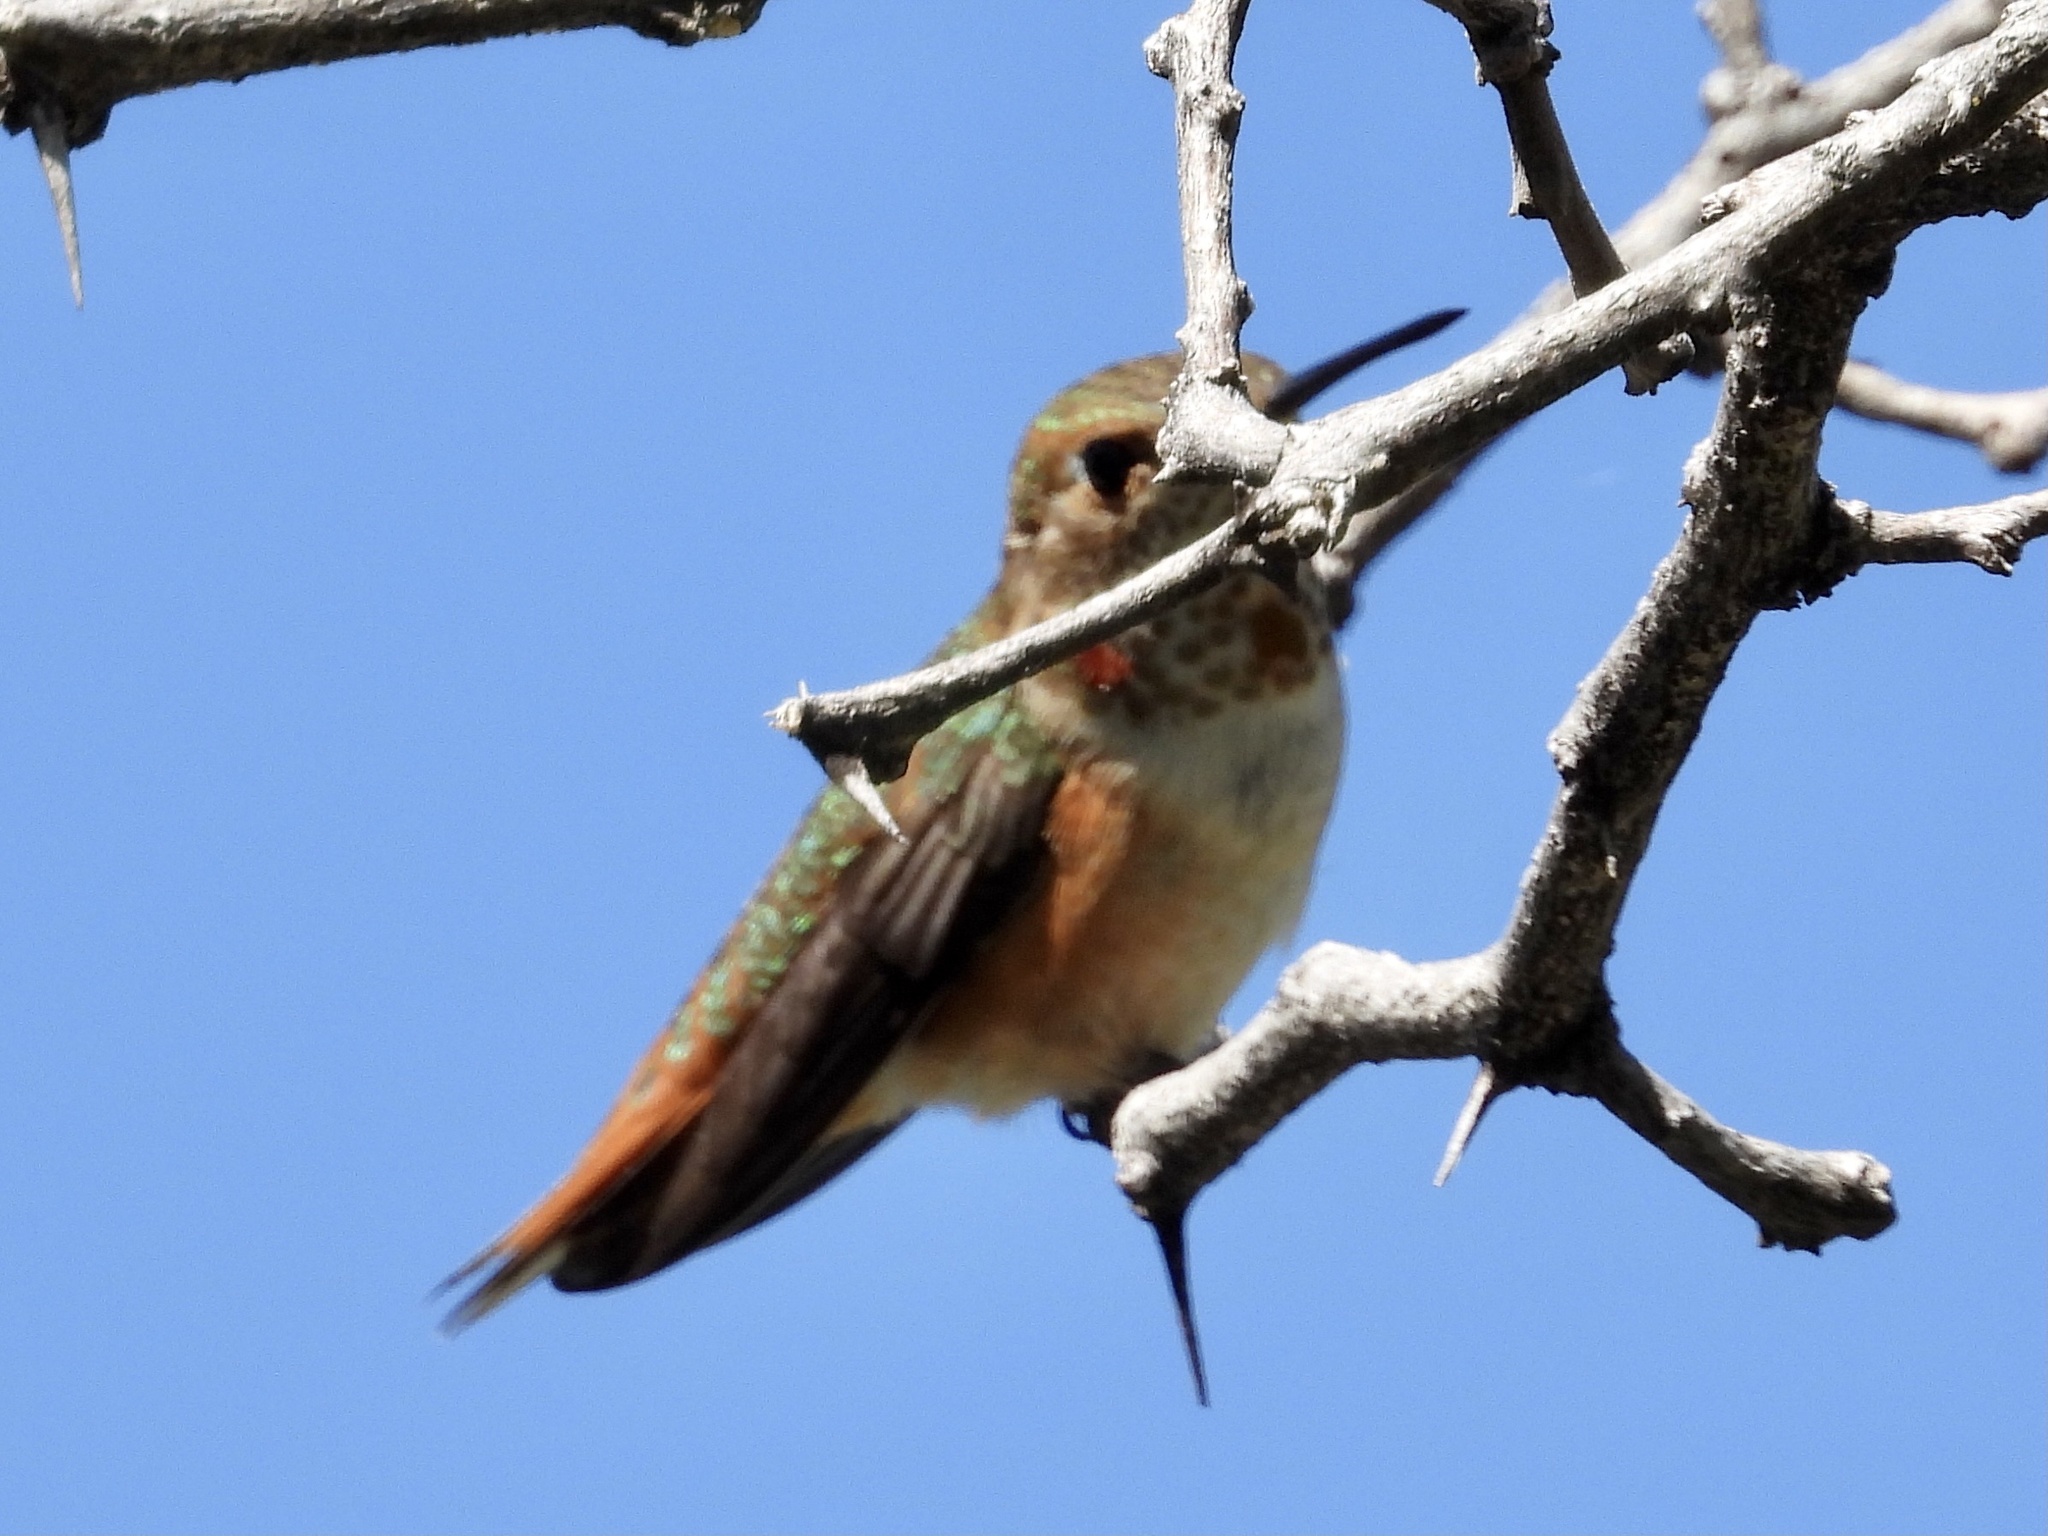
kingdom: Animalia
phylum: Chordata
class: Aves
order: Apodiformes
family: Trochilidae
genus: Selasphorus
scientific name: Selasphorus rufus
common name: Rufous hummingbird
